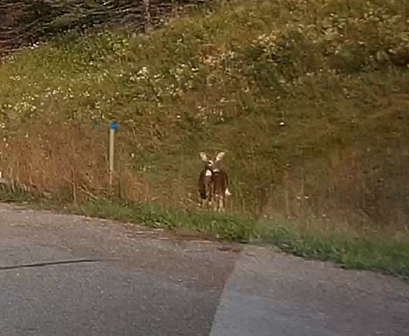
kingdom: Animalia
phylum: Chordata
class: Mammalia
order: Artiodactyla
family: Cervidae
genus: Odocoileus
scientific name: Odocoileus virginianus
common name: White-tailed deer
